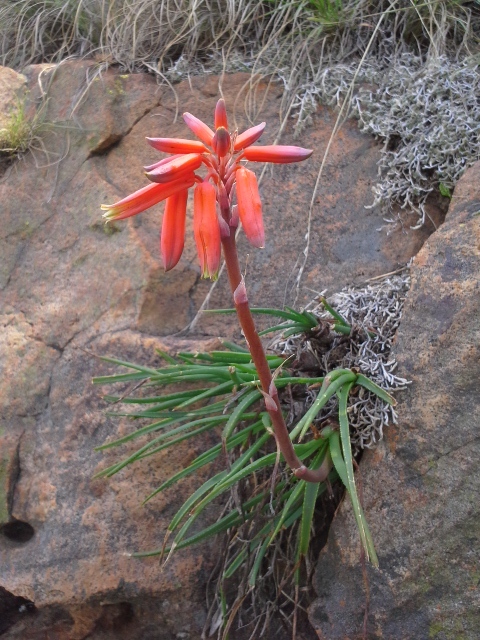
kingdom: Plantae
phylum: Tracheophyta
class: Liliopsida
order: Asparagales
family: Asphodelaceae
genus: Aloe
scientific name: Aloe chortolirioides
